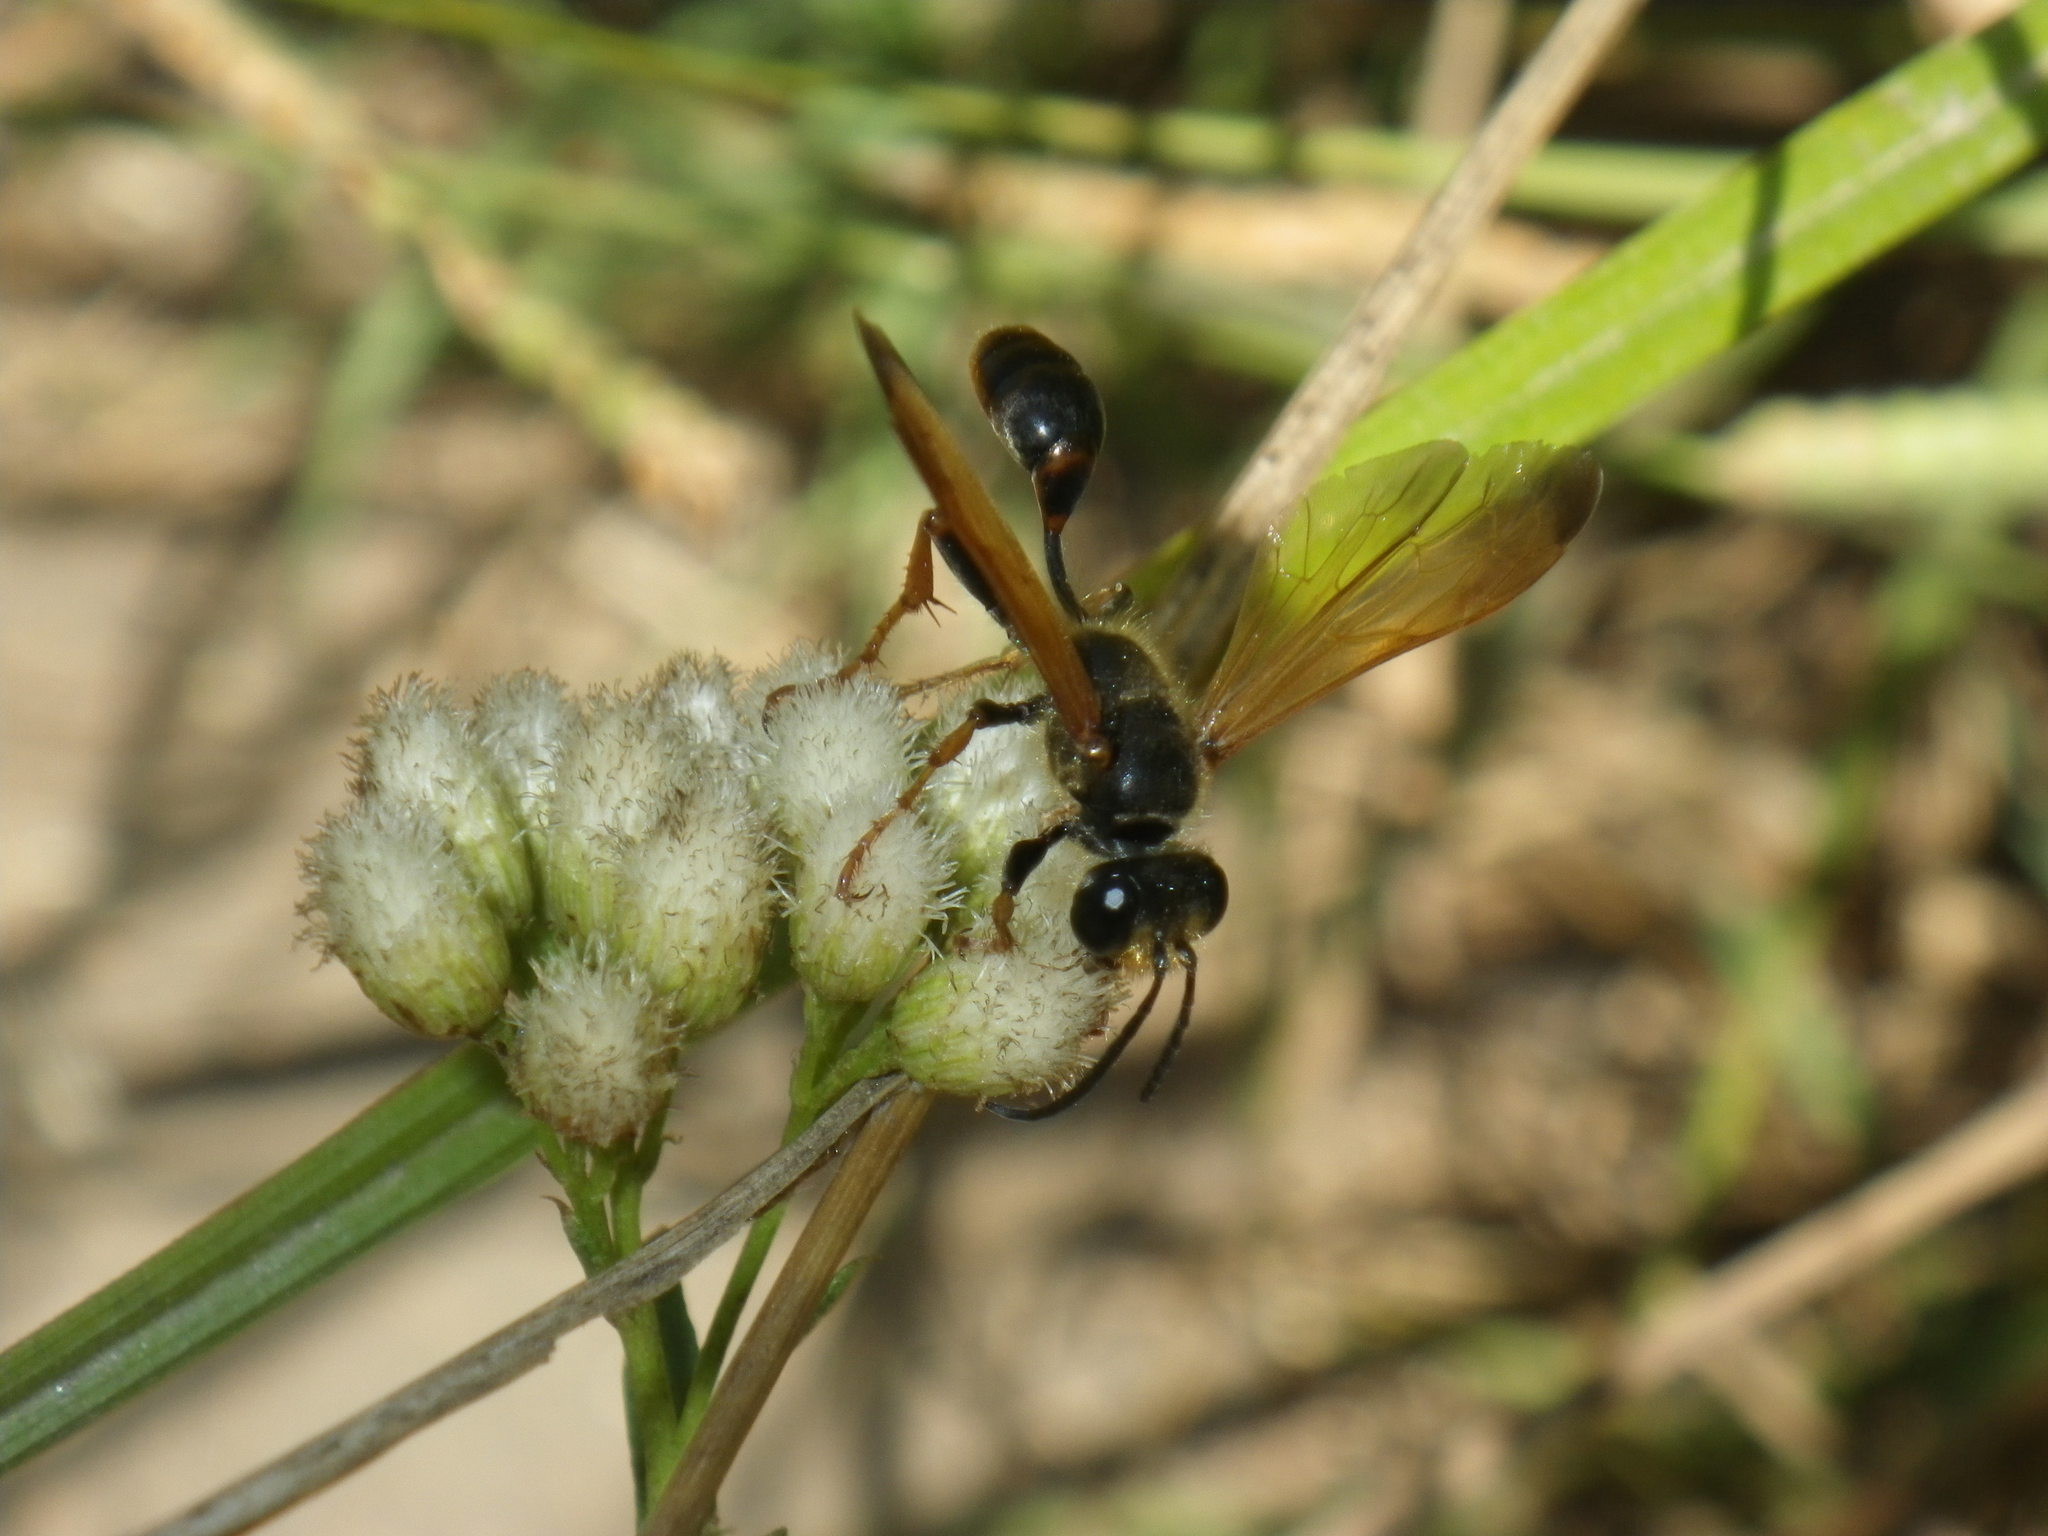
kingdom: Animalia
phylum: Arthropoda
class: Insecta
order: Hymenoptera
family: Sphecidae
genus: Isodontia
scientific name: Isodontia elegans
